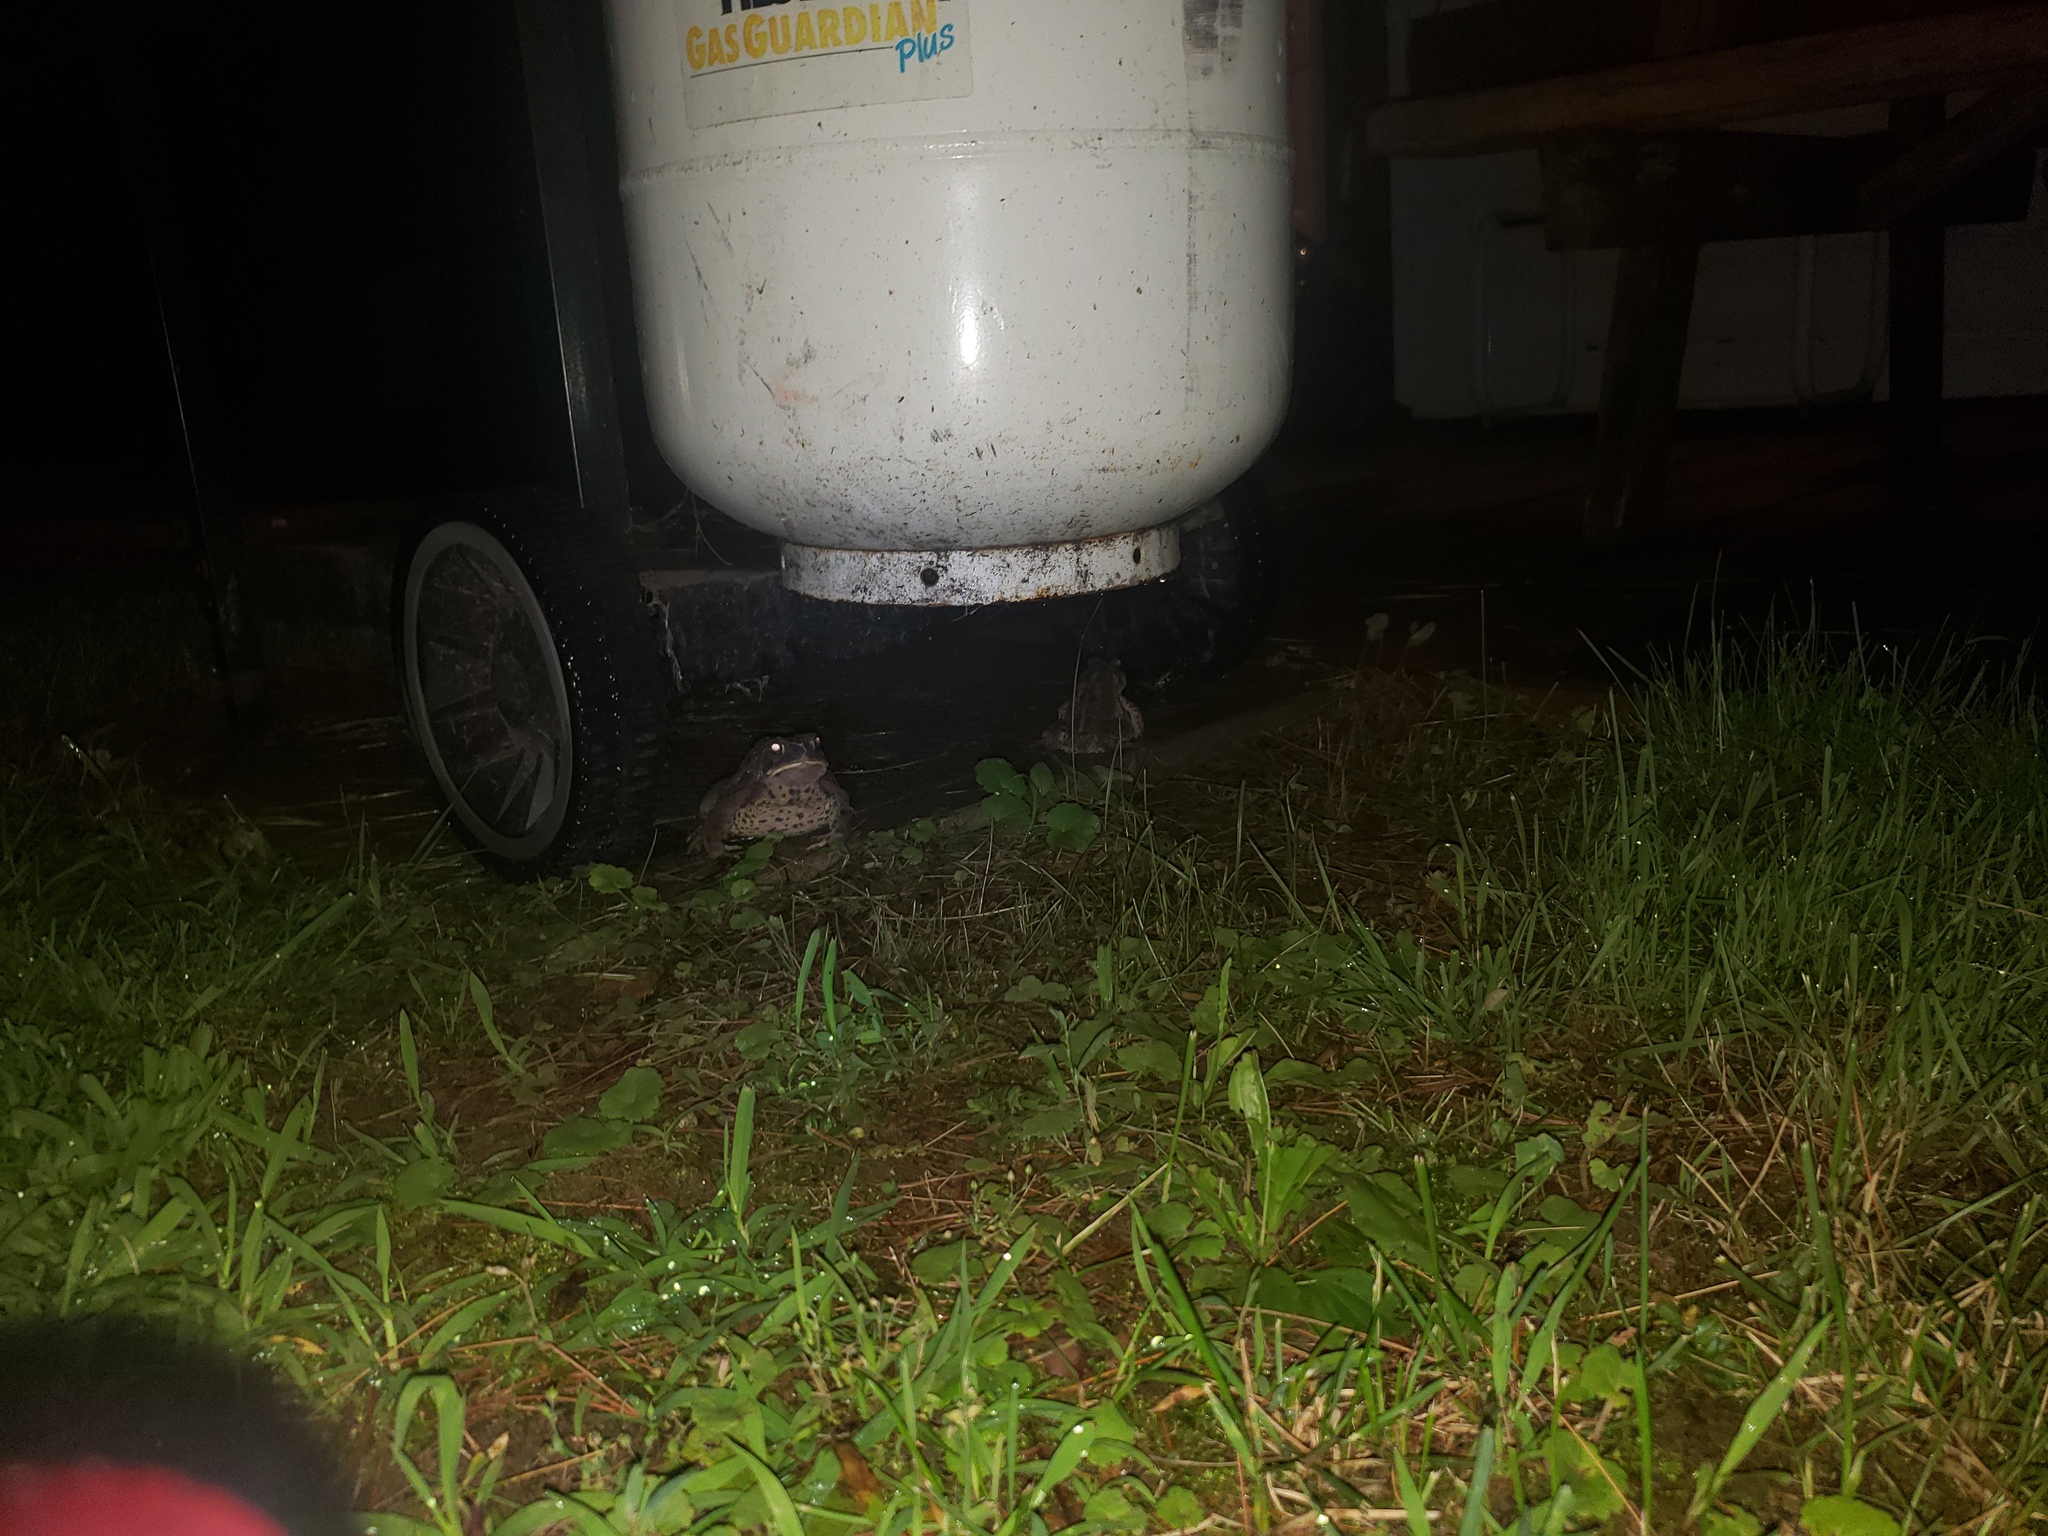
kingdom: Animalia
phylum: Chordata
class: Amphibia
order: Anura
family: Bufonidae
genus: Anaxyrus
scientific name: Anaxyrus americanus
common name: American toad
